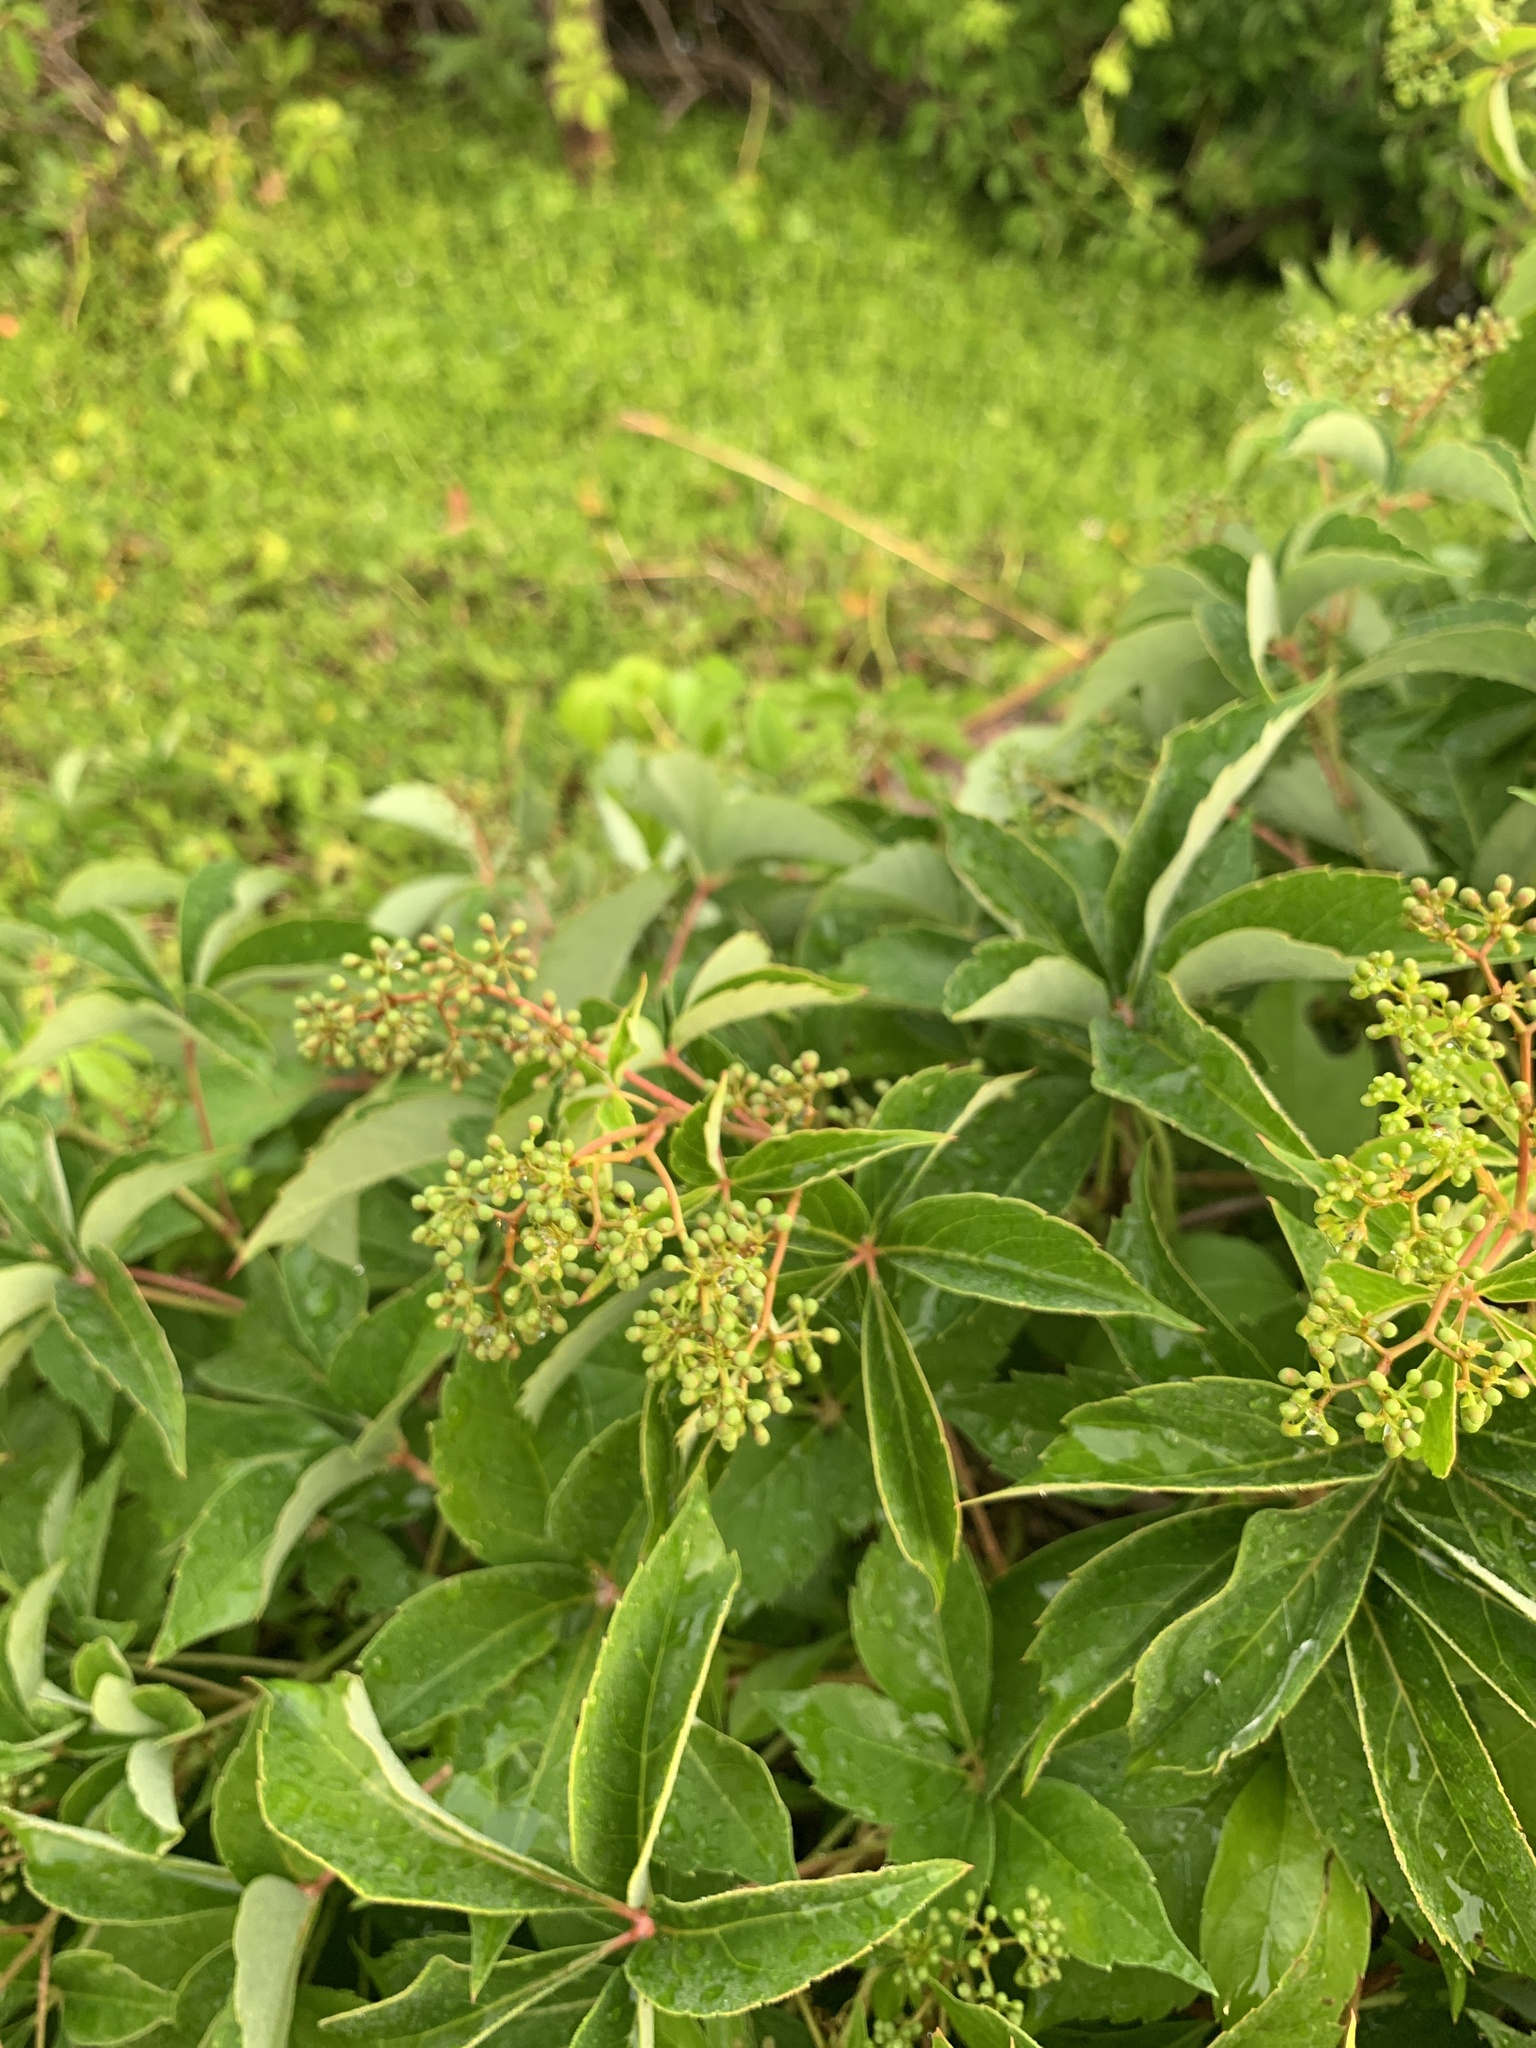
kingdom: Plantae
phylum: Tracheophyta
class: Magnoliopsida
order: Vitales
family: Vitaceae
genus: Parthenocissus
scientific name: Parthenocissus quinquefolia
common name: Virginia-creeper
